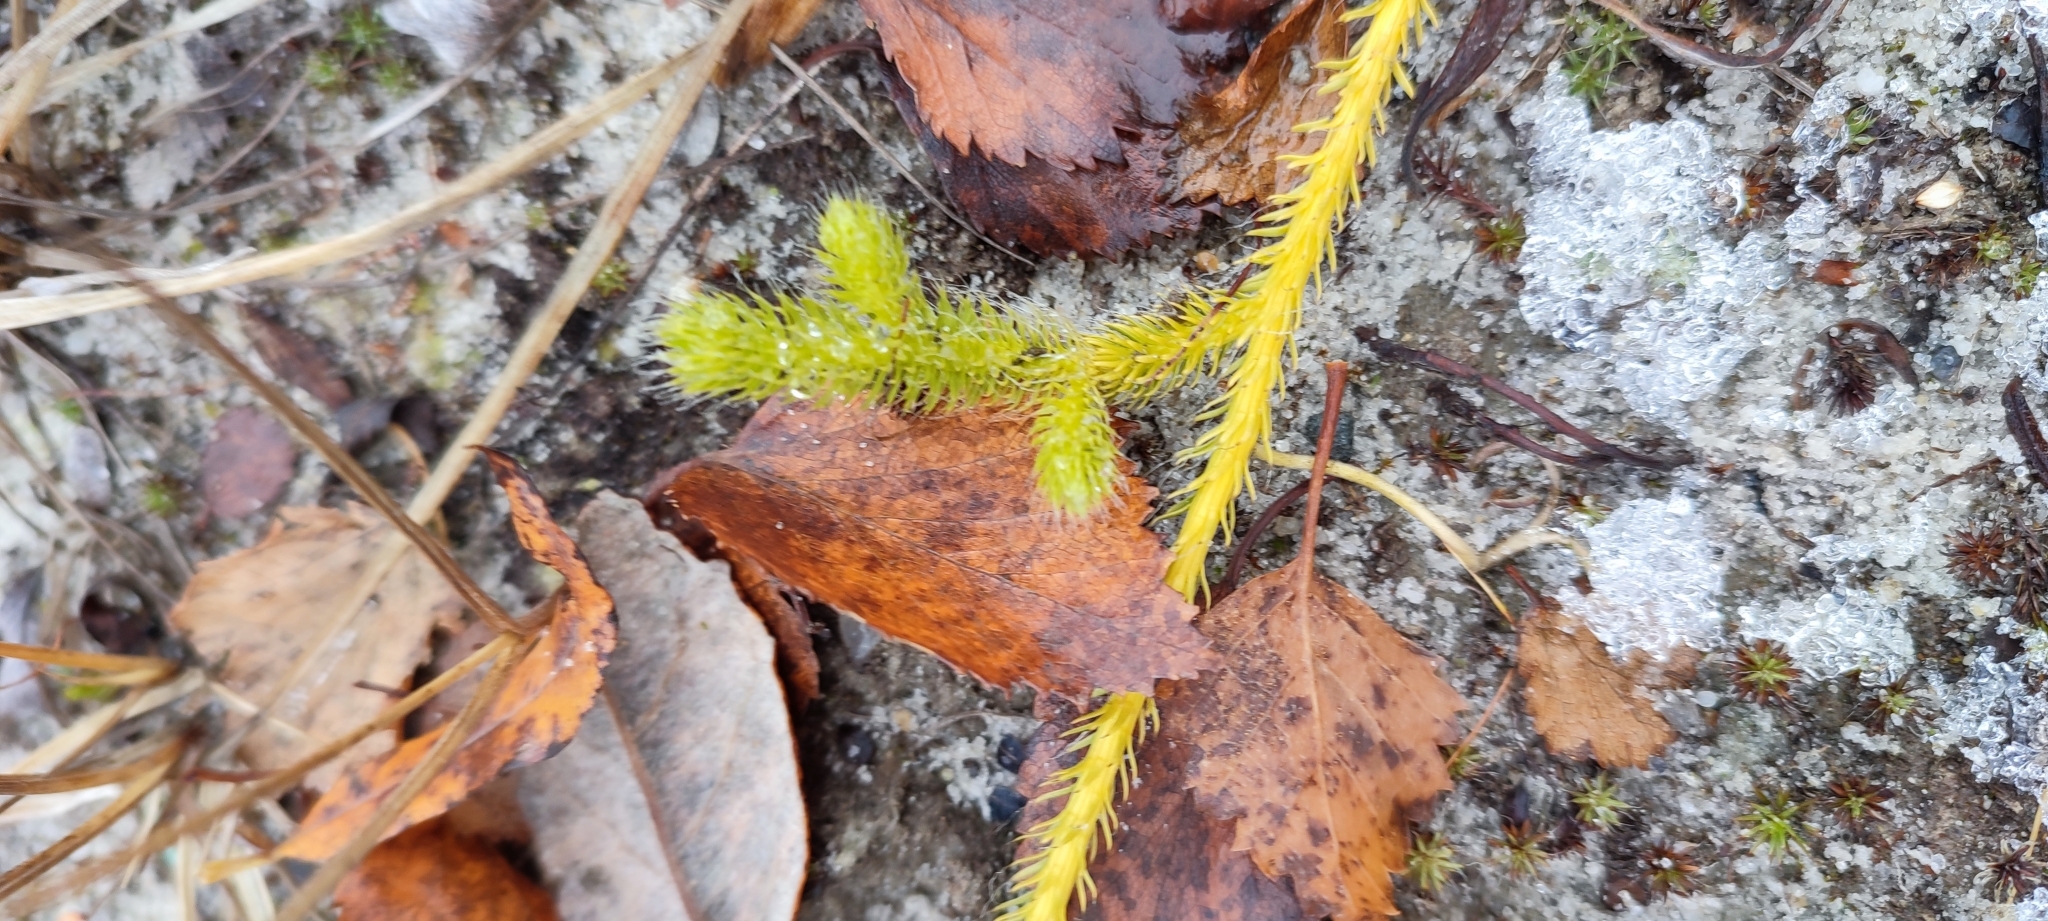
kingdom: Plantae
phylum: Tracheophyta
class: Lycopodiopsida
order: Lycopodiales
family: Lycopodiaceae
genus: Lycopodium
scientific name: Lycopodium lagopus
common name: One-cone clubmoss
